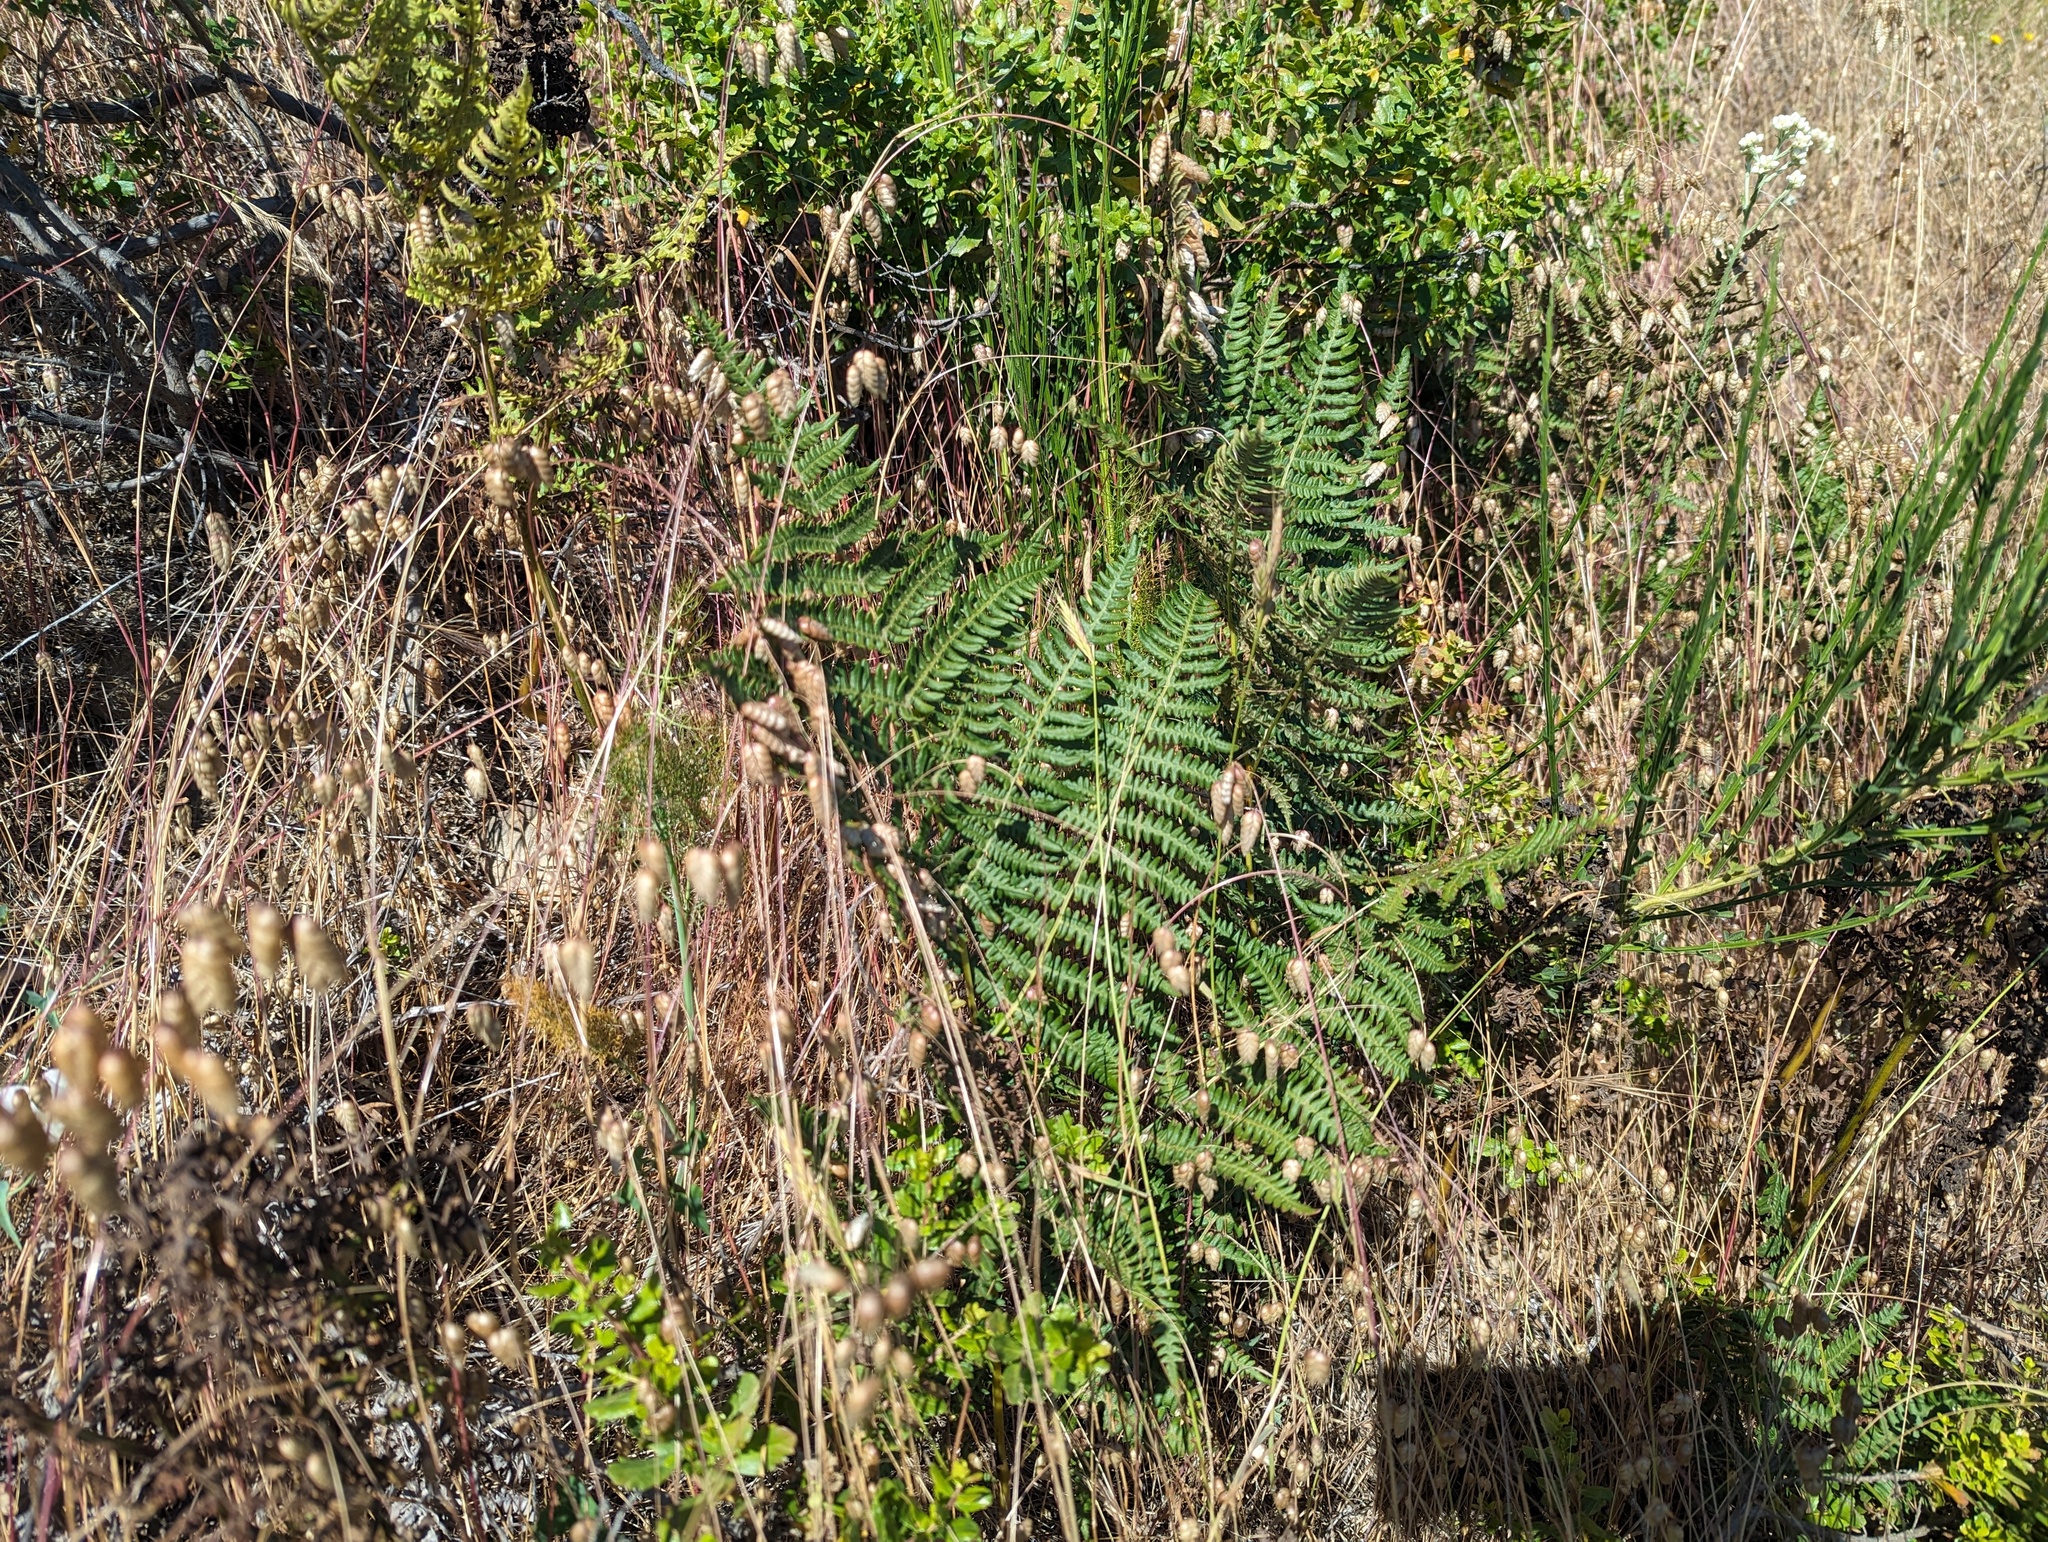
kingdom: Plantae
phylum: Tracheophyta
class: Polypodiopsida
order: Polypodiales
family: Dennstaedtiaceae
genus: Pteridium
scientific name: Pteridium aquilinum
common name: Bracken
